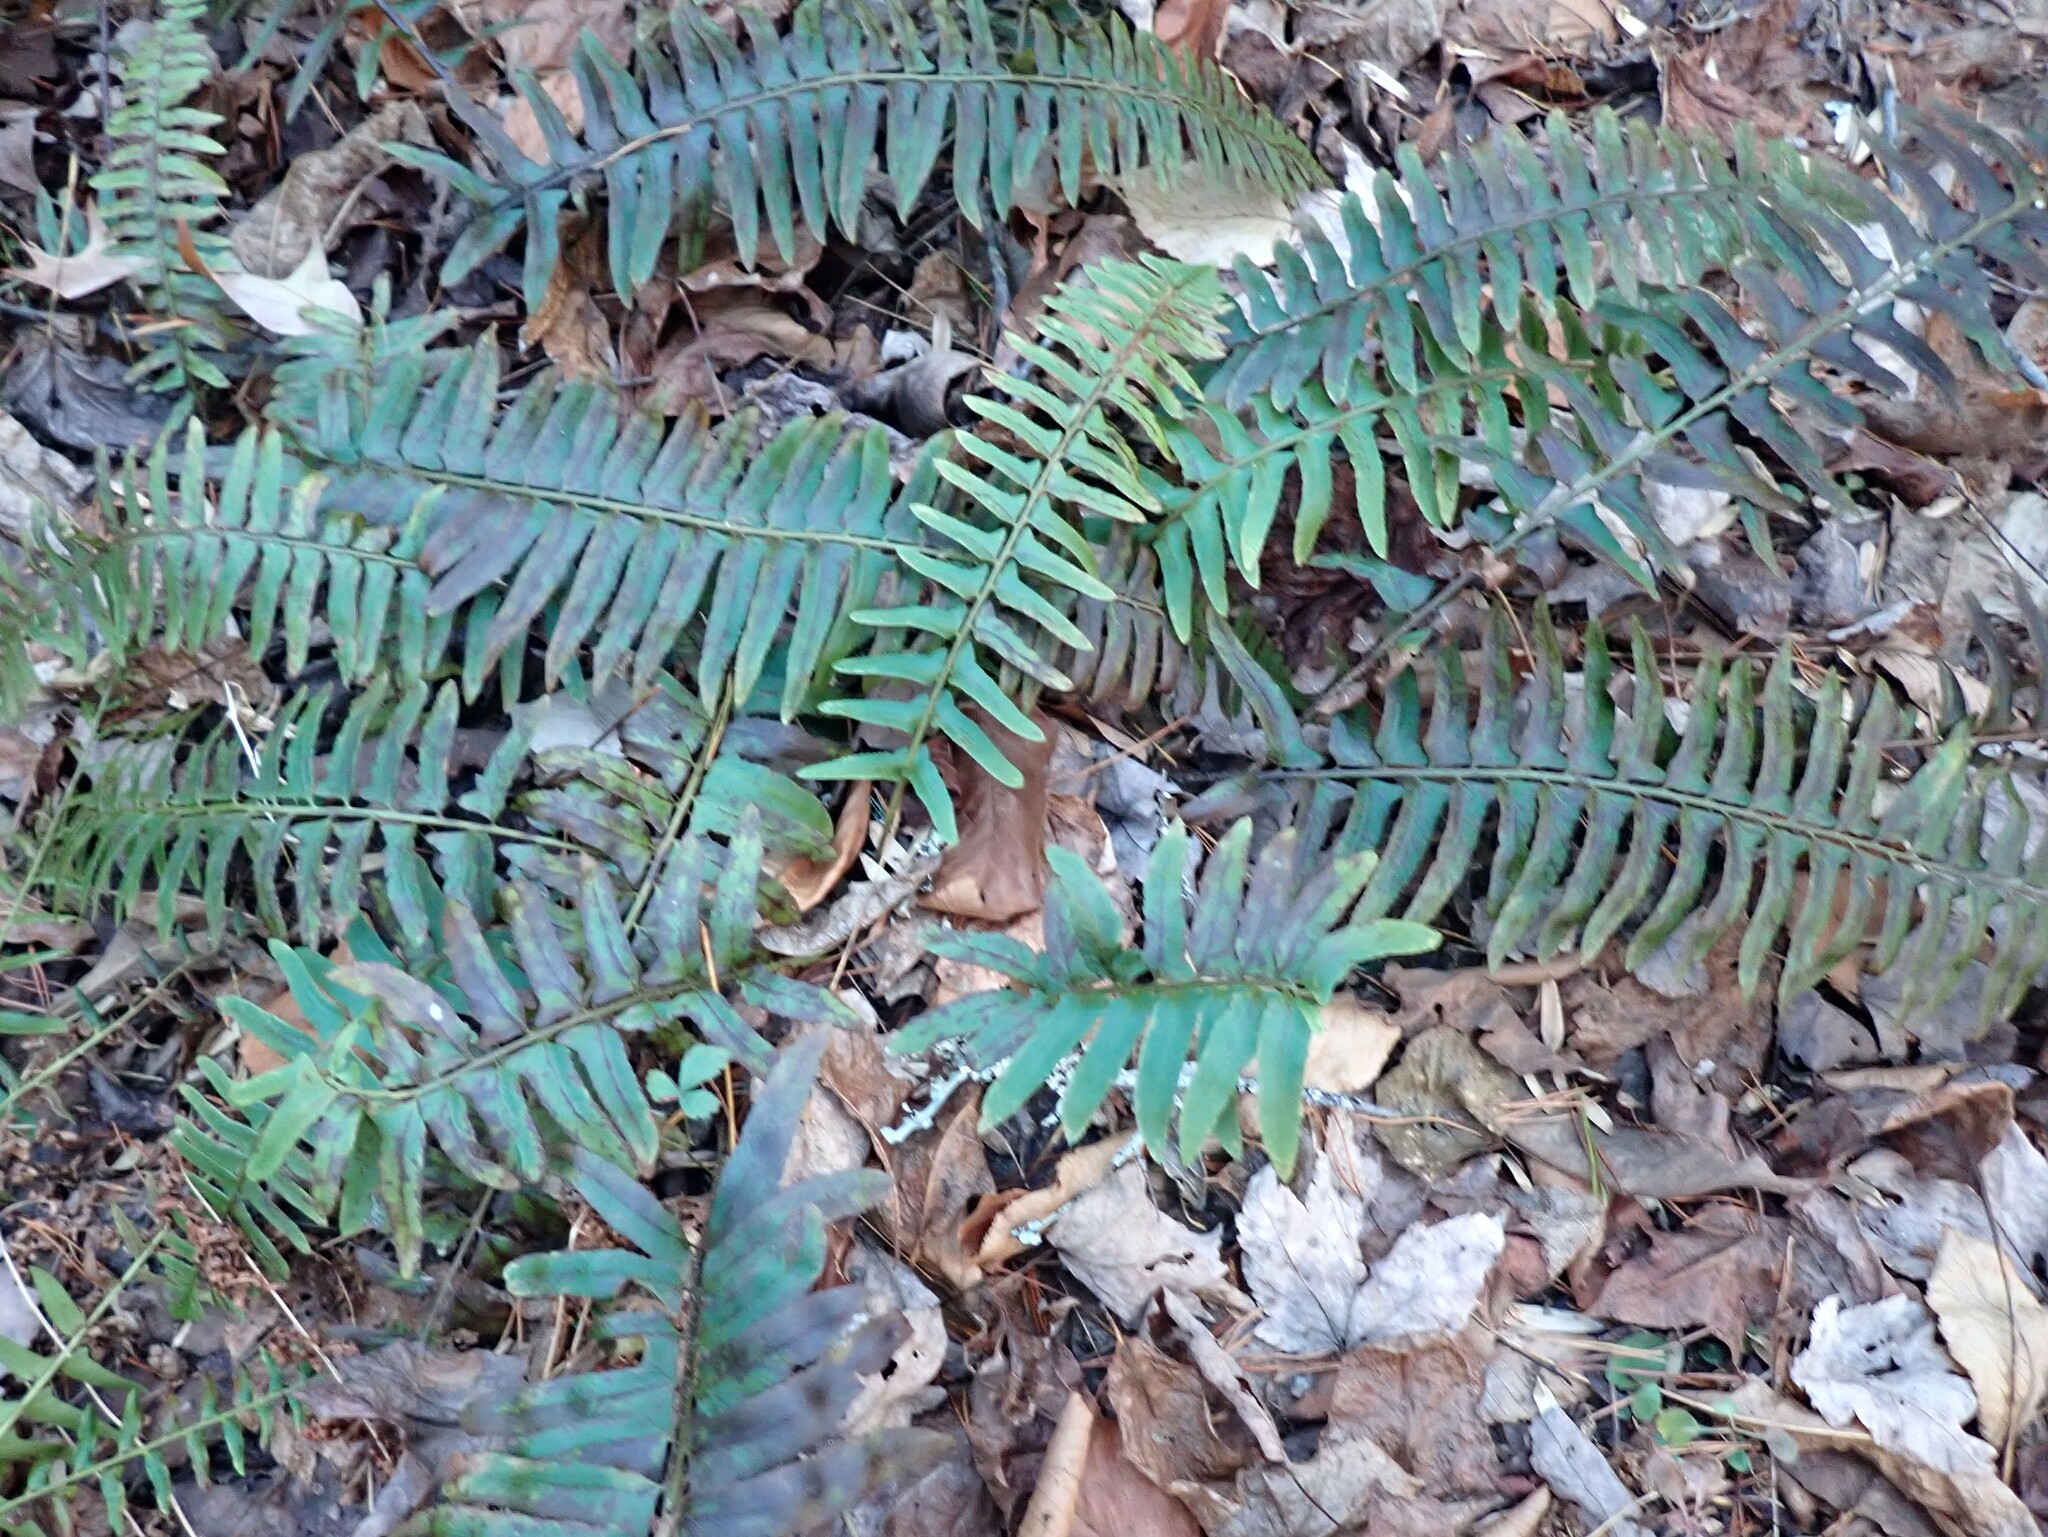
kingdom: Plantae
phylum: Tracheophyta
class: Polypodiopsida
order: Polypodiales
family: Dryopteridaceae
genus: Polystichum
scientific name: Polystichum acrostichoides
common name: Christmas fern
